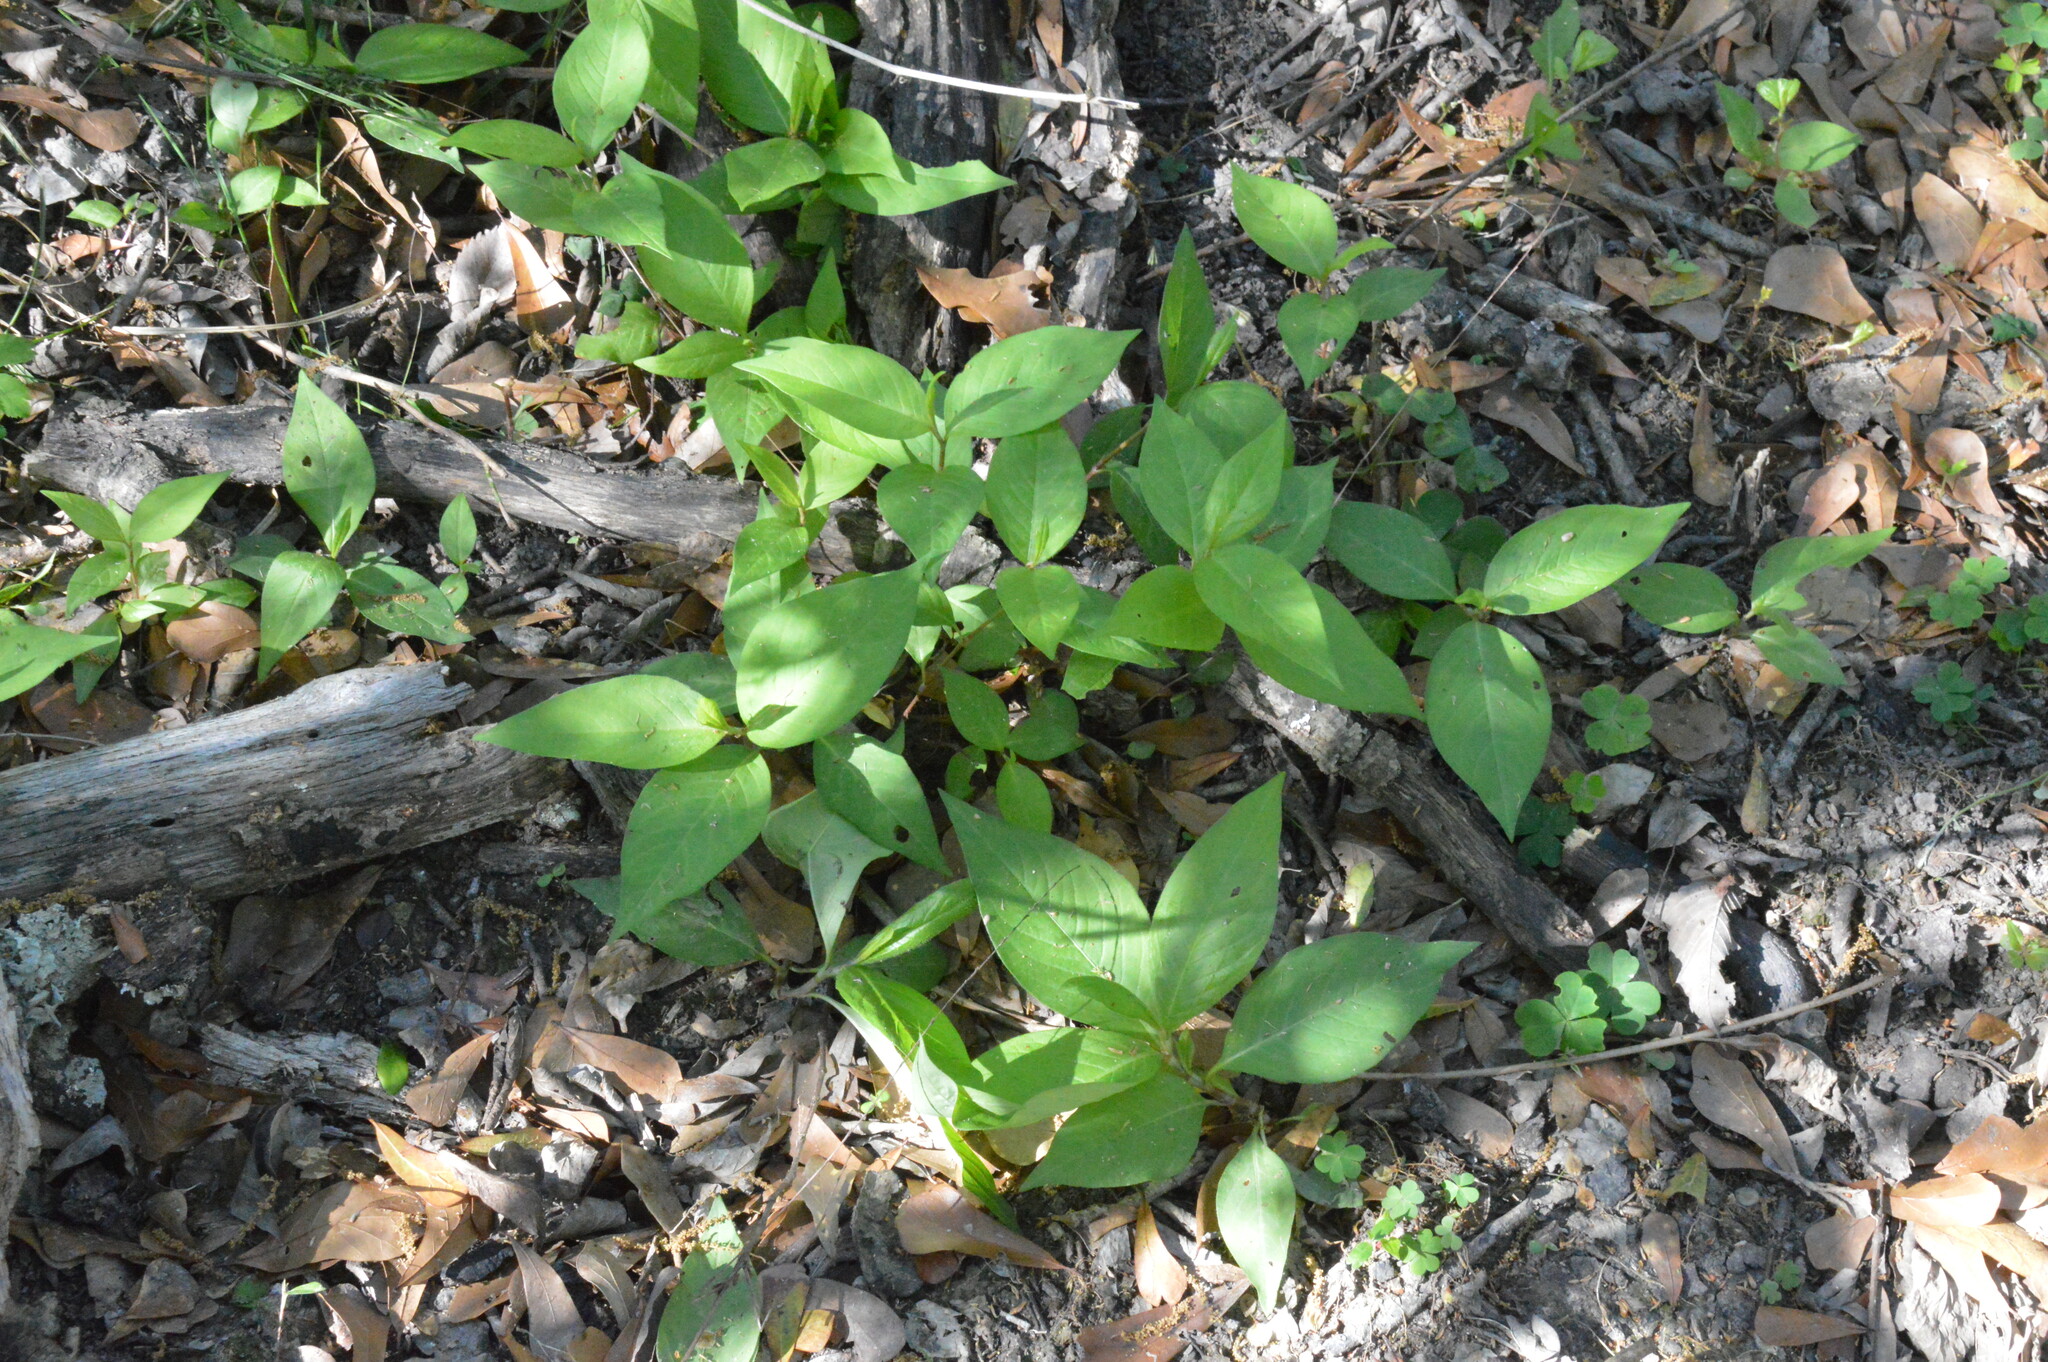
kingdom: Plantae
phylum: Tracheophyta
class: Magnoliopsida
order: Caryophyllales
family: Polygonaceae
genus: Persicaria
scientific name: Persicaria virginiana
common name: Jumpseed
